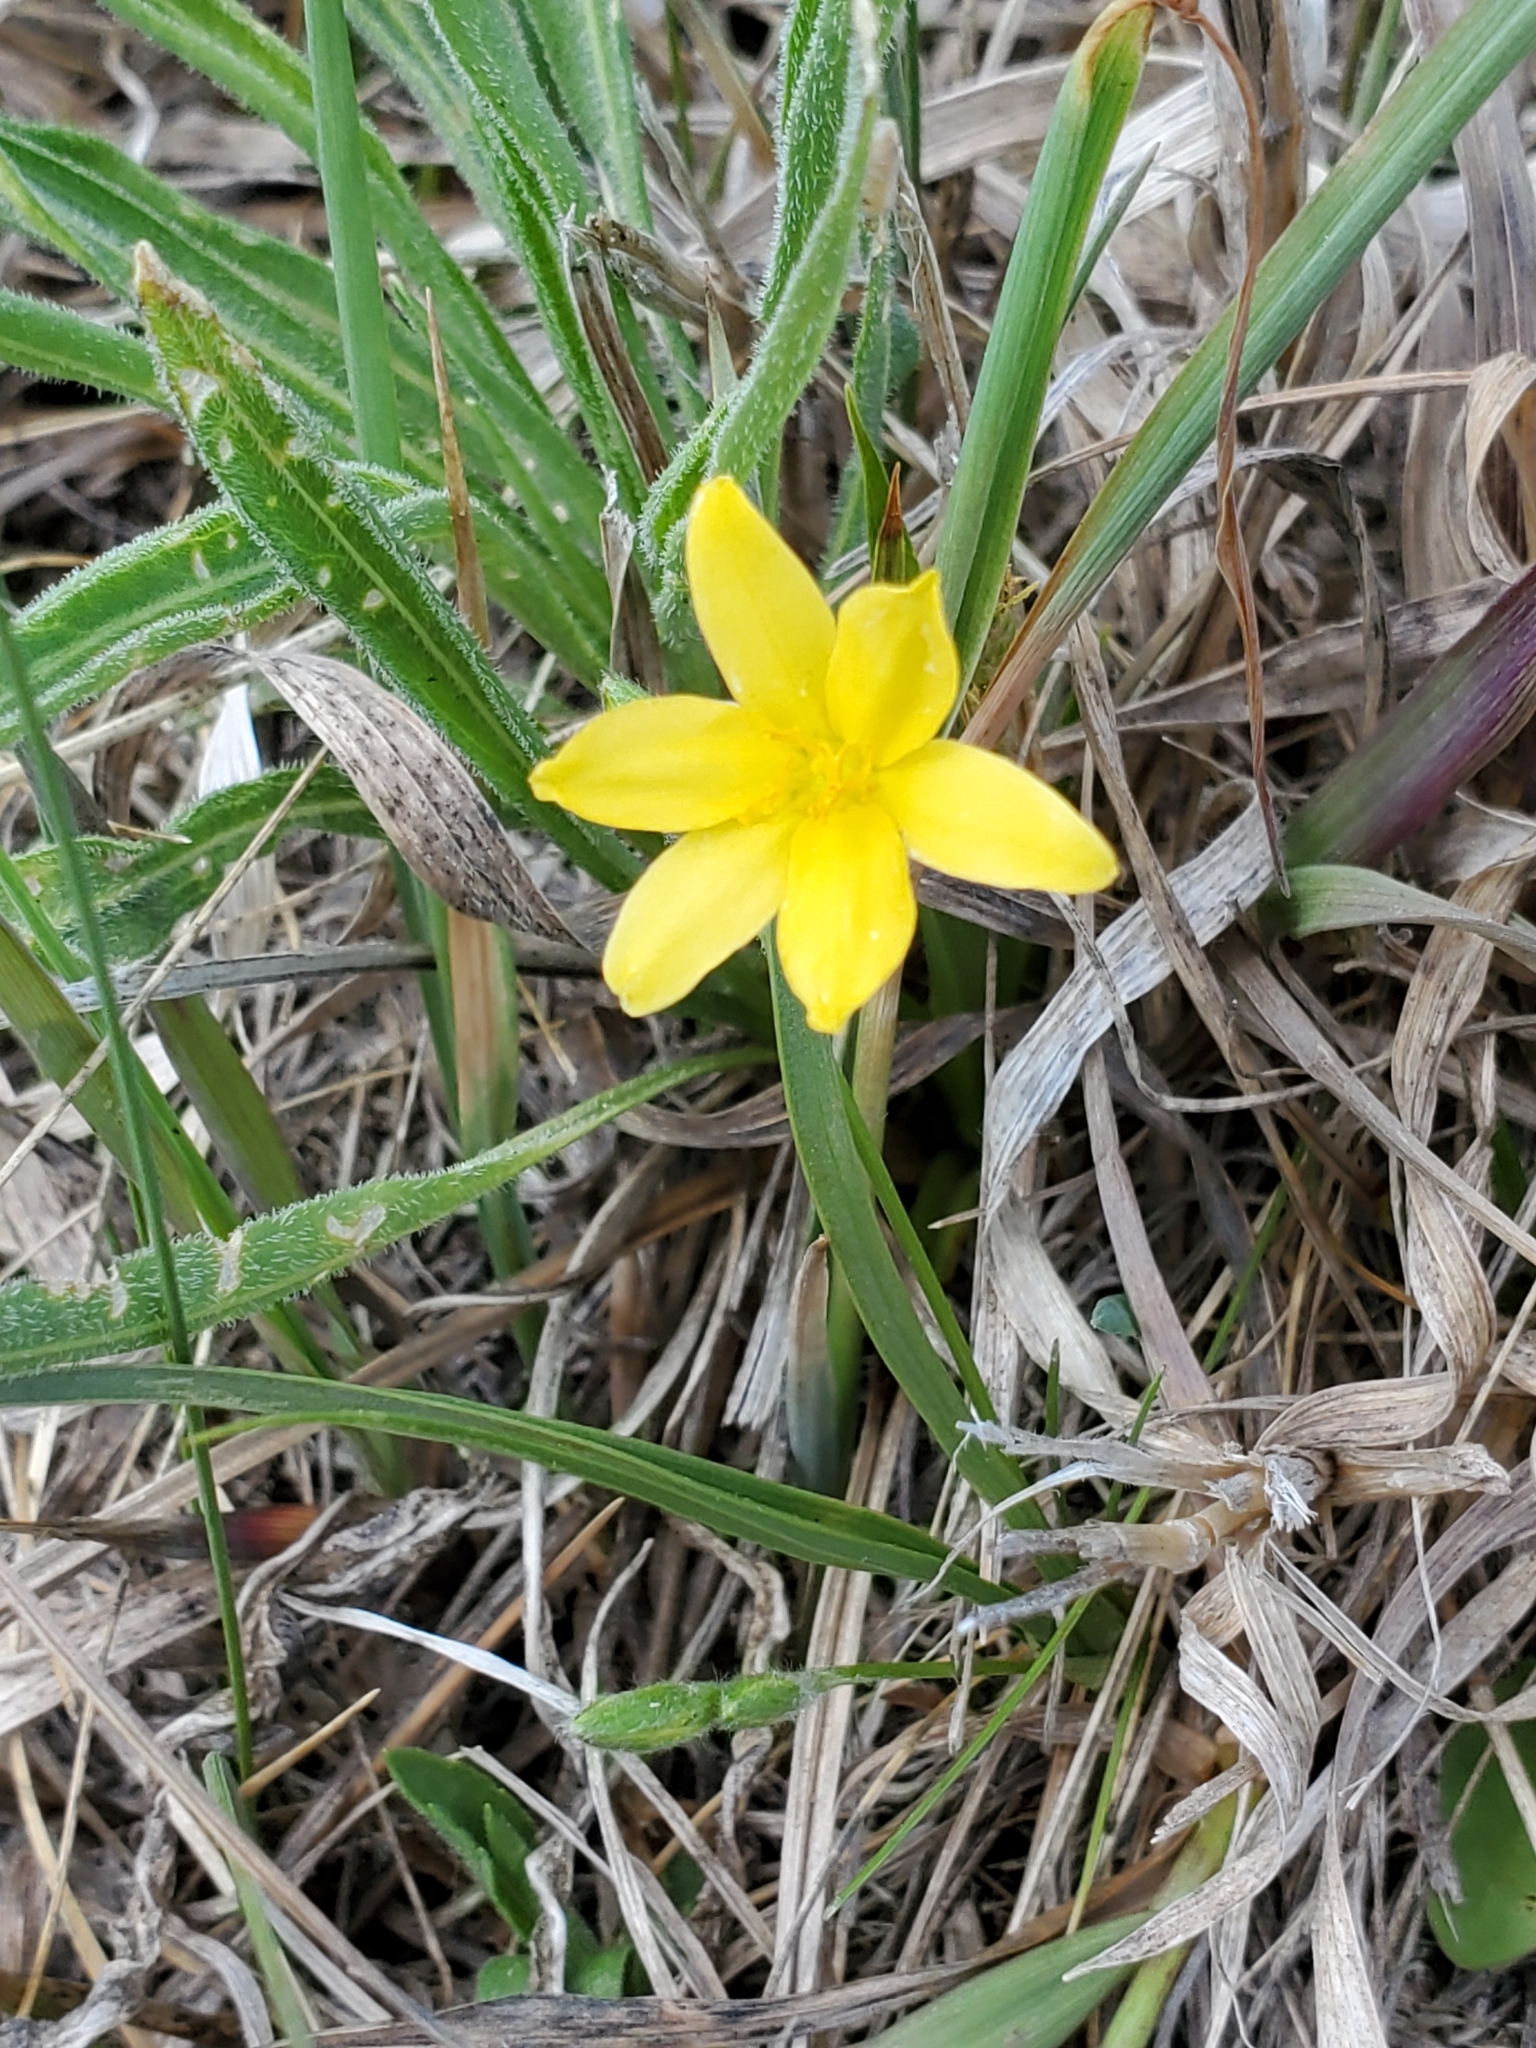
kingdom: Plantae
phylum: Tracheophyta
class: Liliopsida
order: Asparagales
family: Hypoxidaceae
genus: Hypoxis
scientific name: Hypoxis hirsuta
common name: Common goldstar
